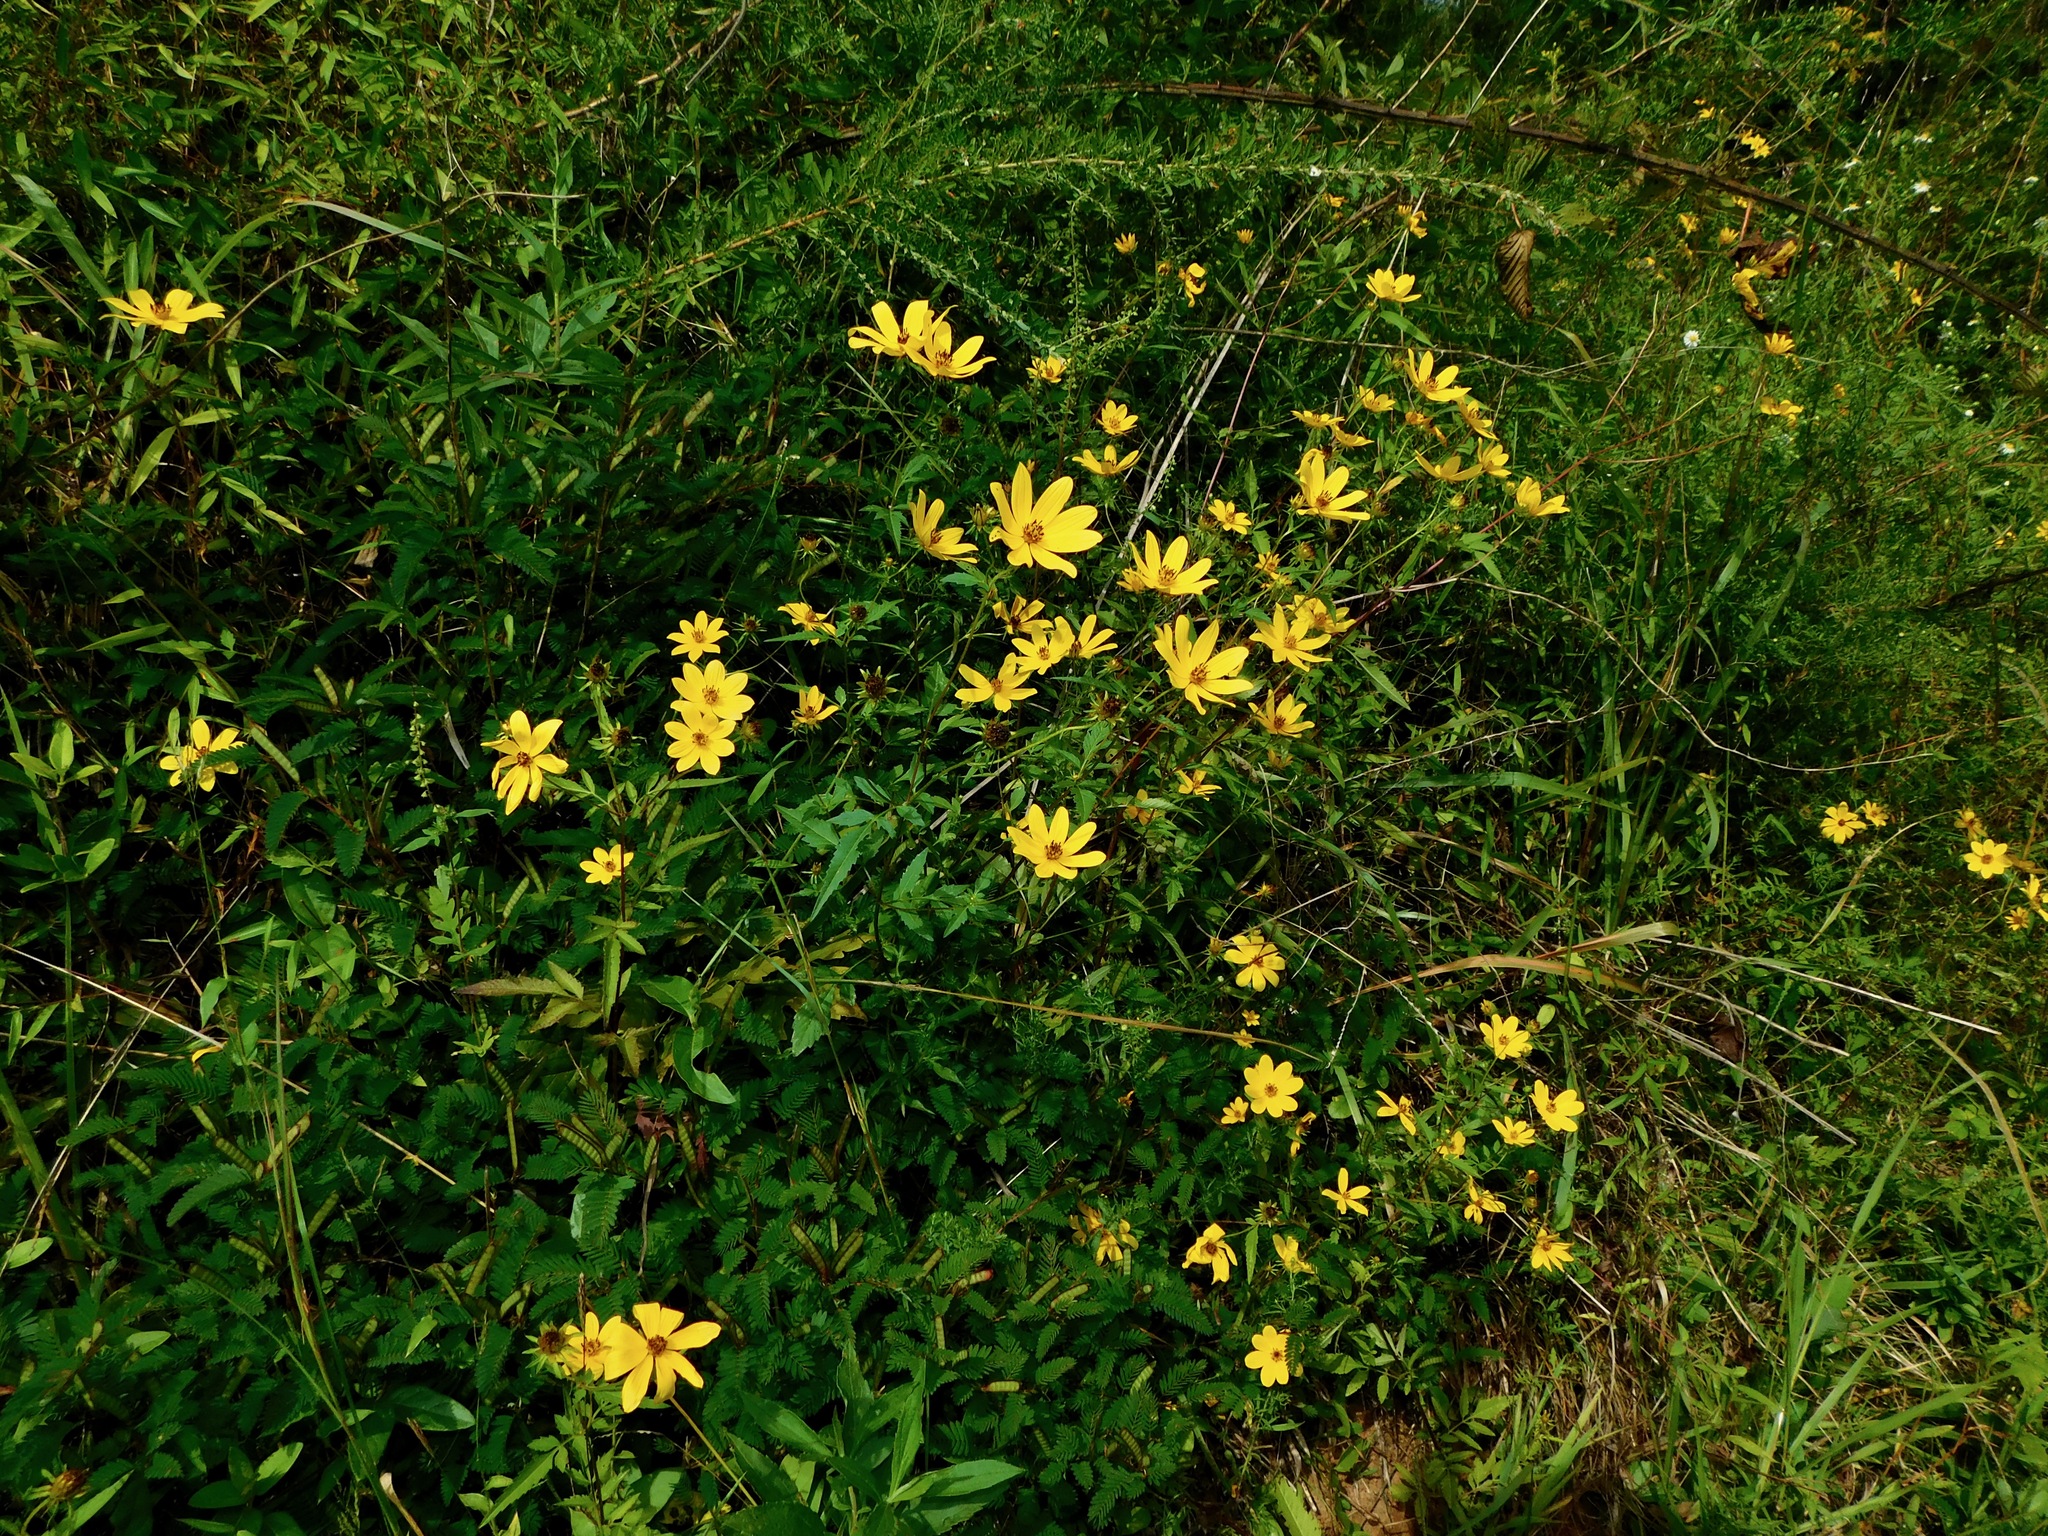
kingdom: Plantae
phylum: Tracheophyta
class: Magnoliopsida
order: Asterales
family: Asteraceae
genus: Bidens
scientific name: Bidens polylepis
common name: Awnless beggarticks
